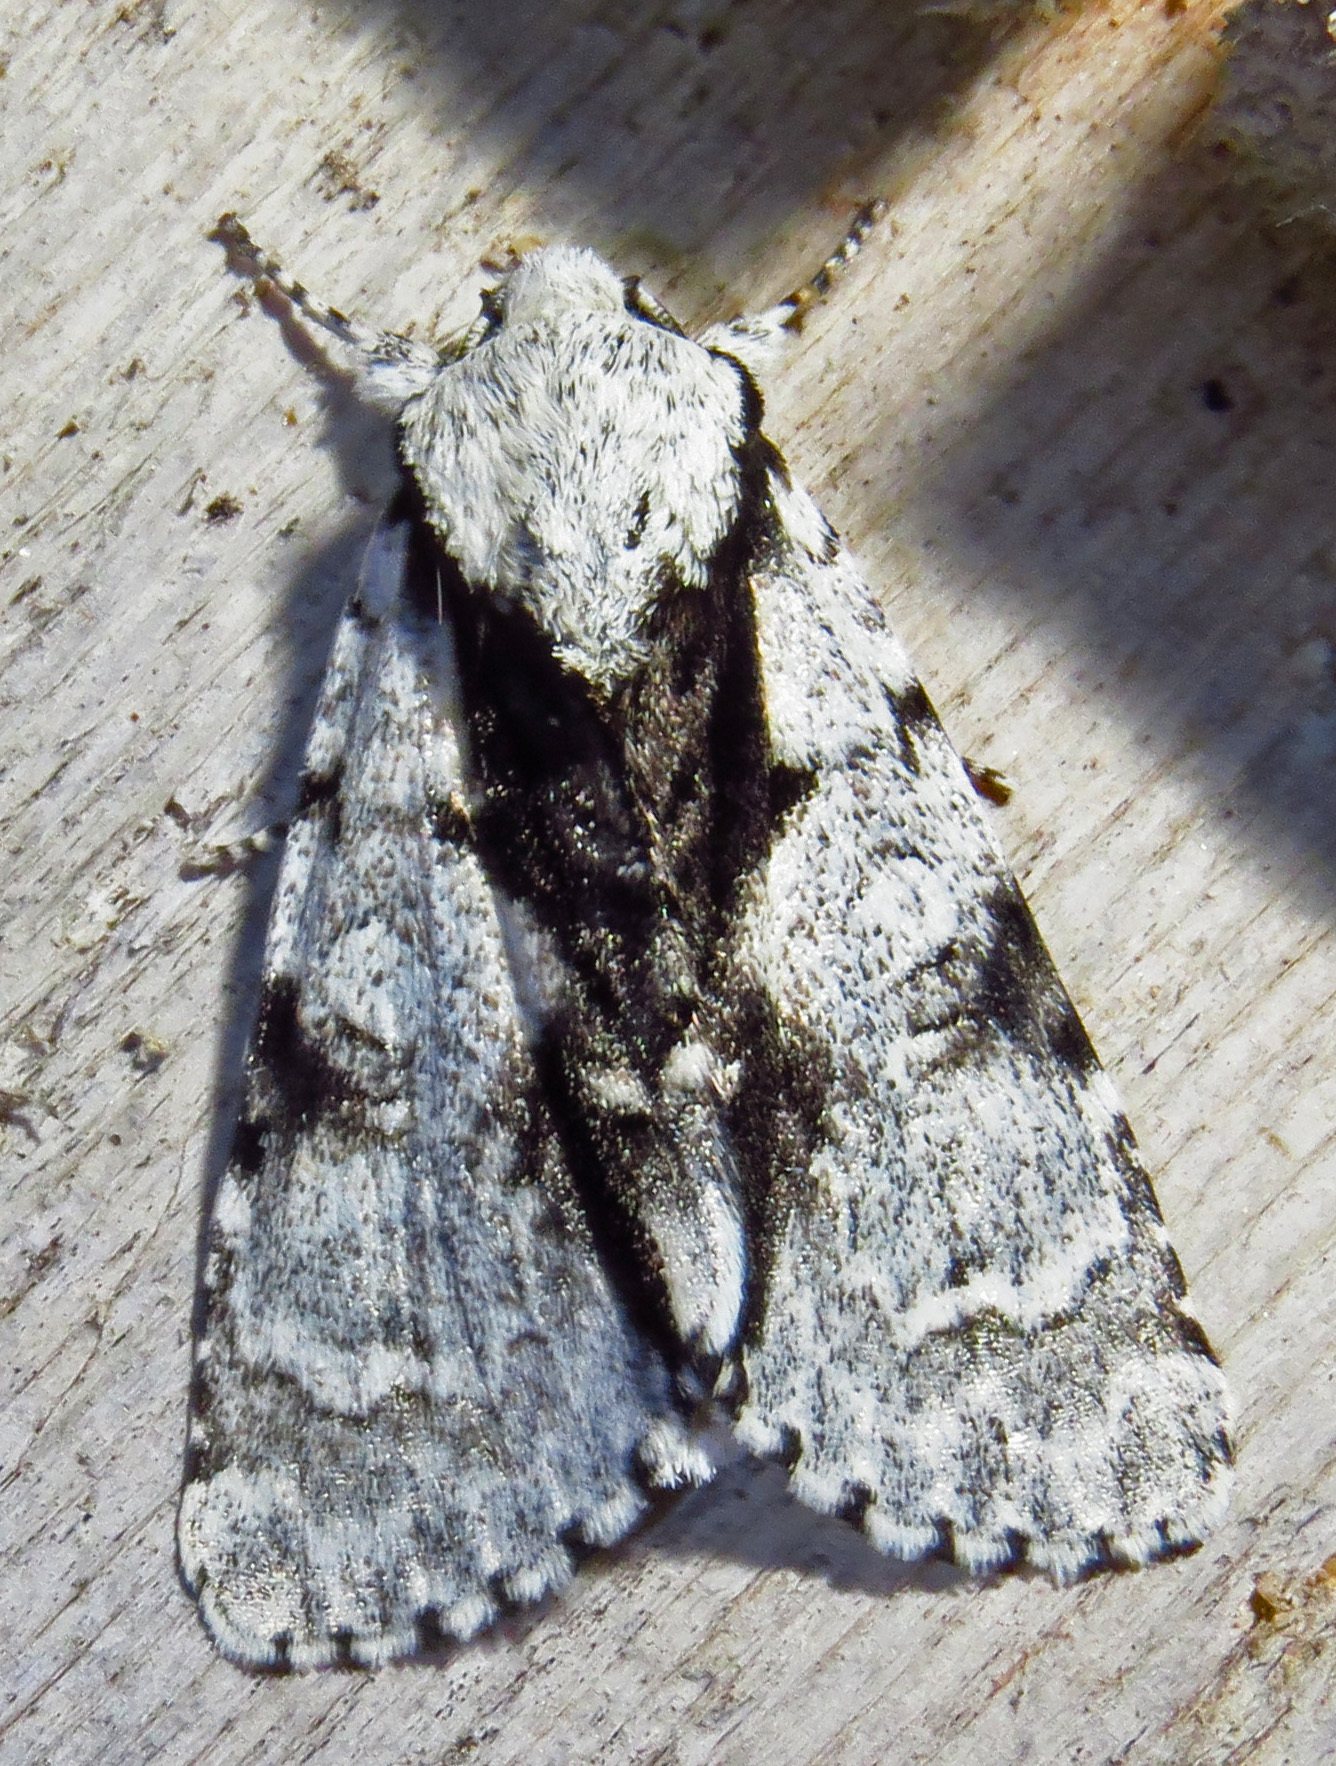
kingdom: Animalia
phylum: Arthropoda
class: Insecta
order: Lepidoptera
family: Noctuidae
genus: Acronicta
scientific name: Acronicta funeralis
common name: Funerary dagger
